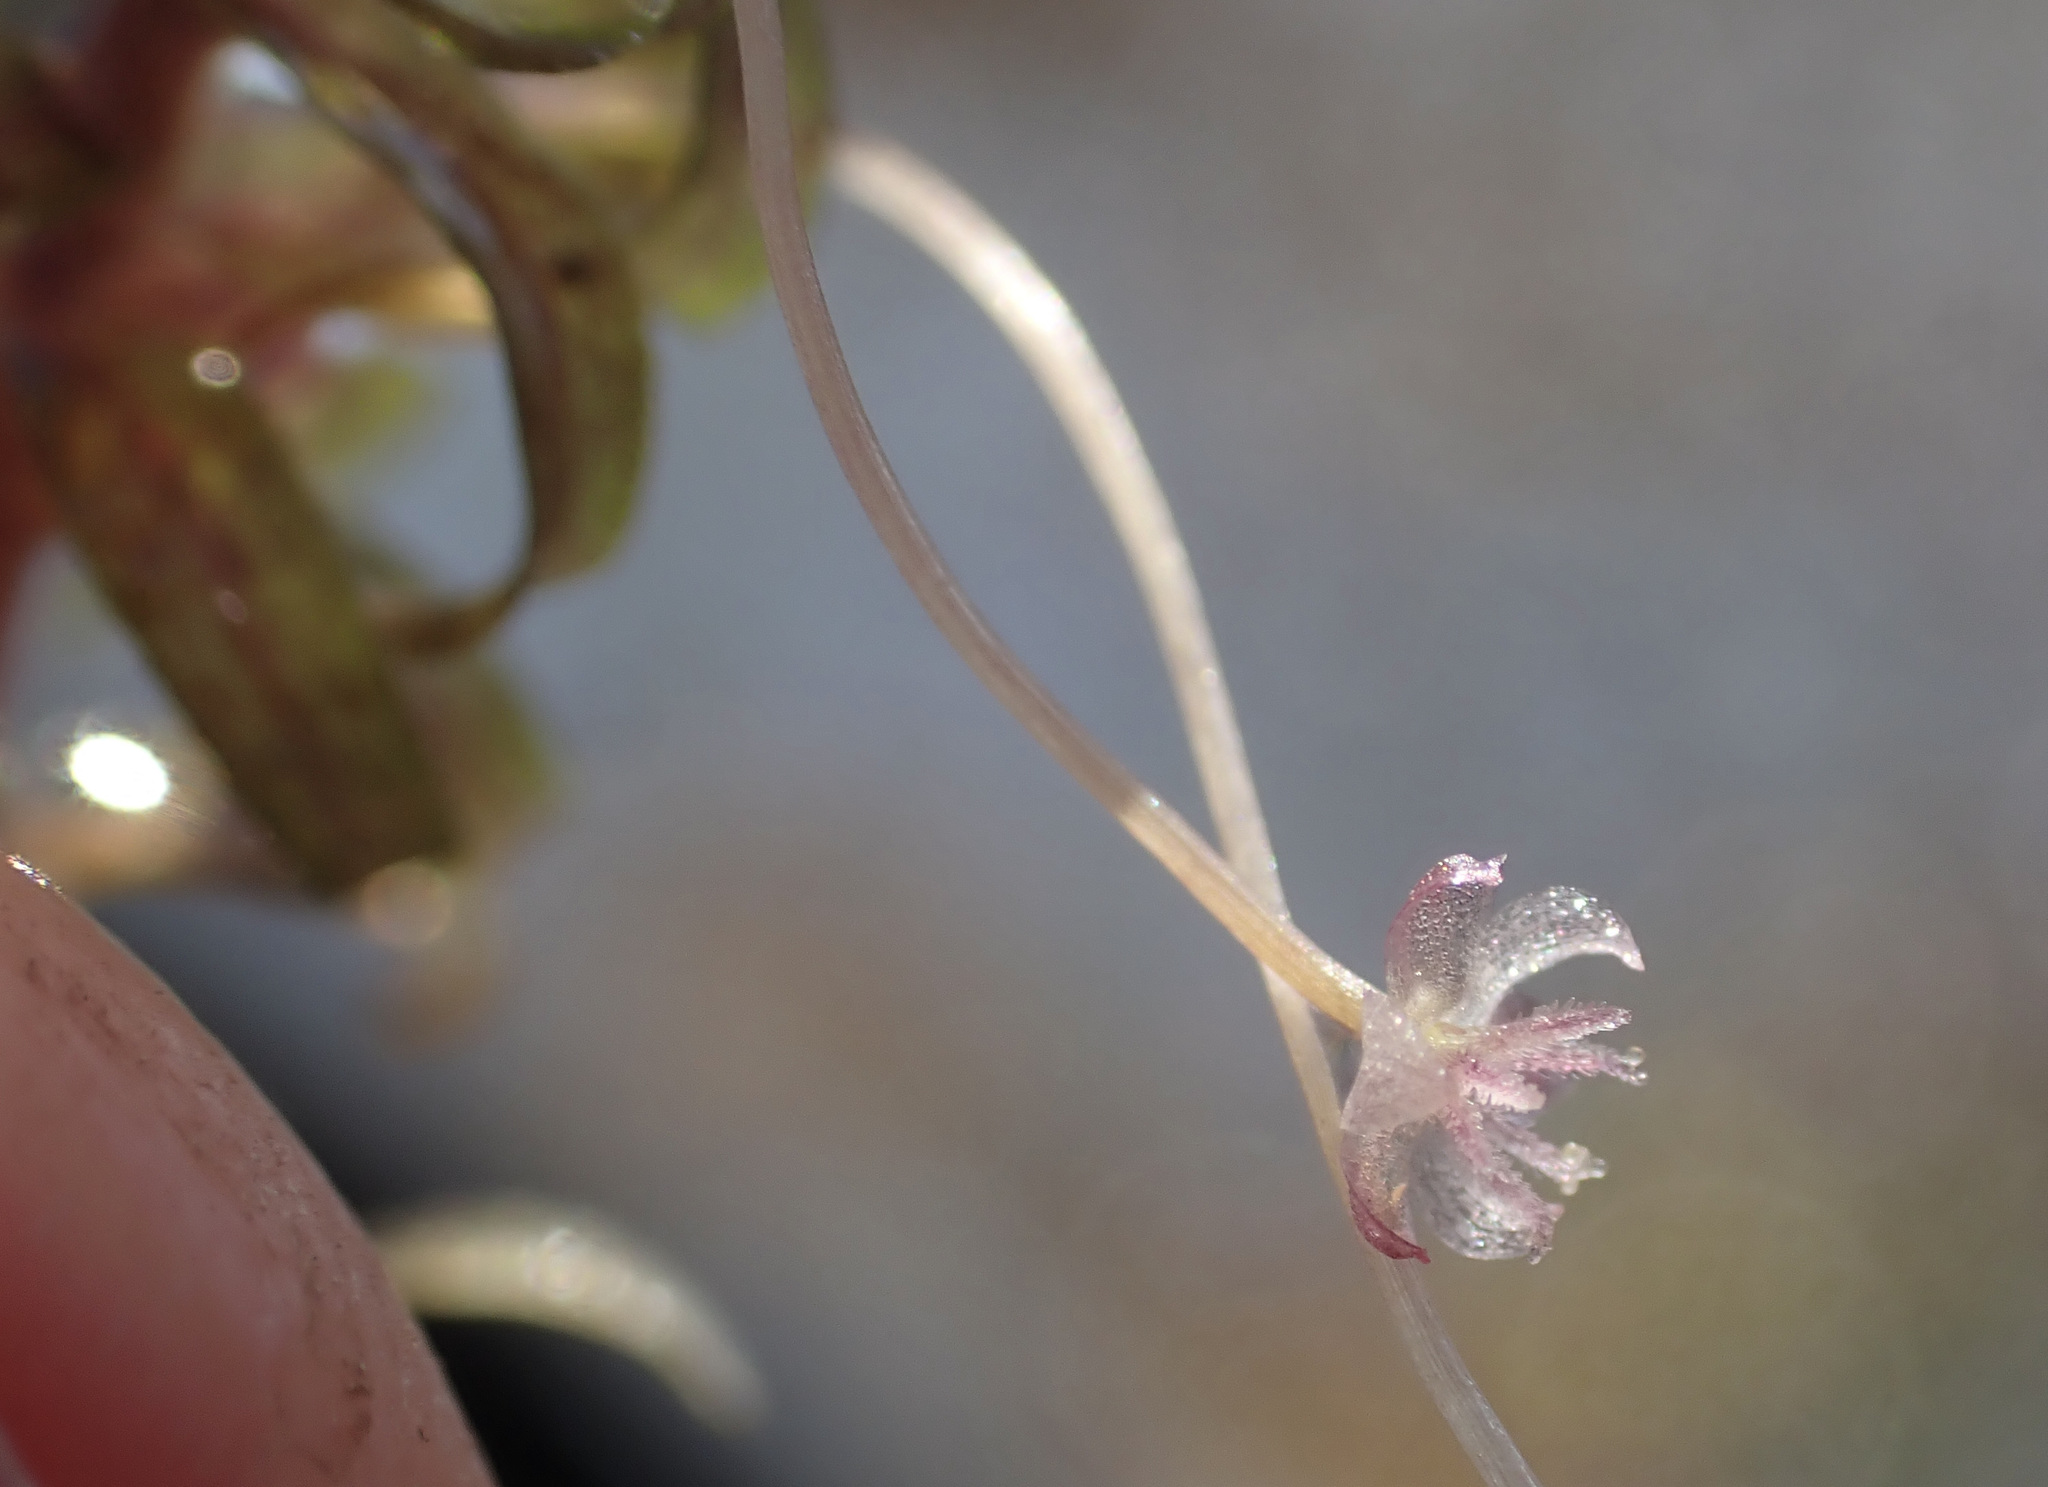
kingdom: Plantae
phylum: Tracheophyta
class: Liliopsida
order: Alismatales
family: Hydrocharitaceae
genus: Lagarosiphon
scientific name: Lagarosiphon ilicifolius
